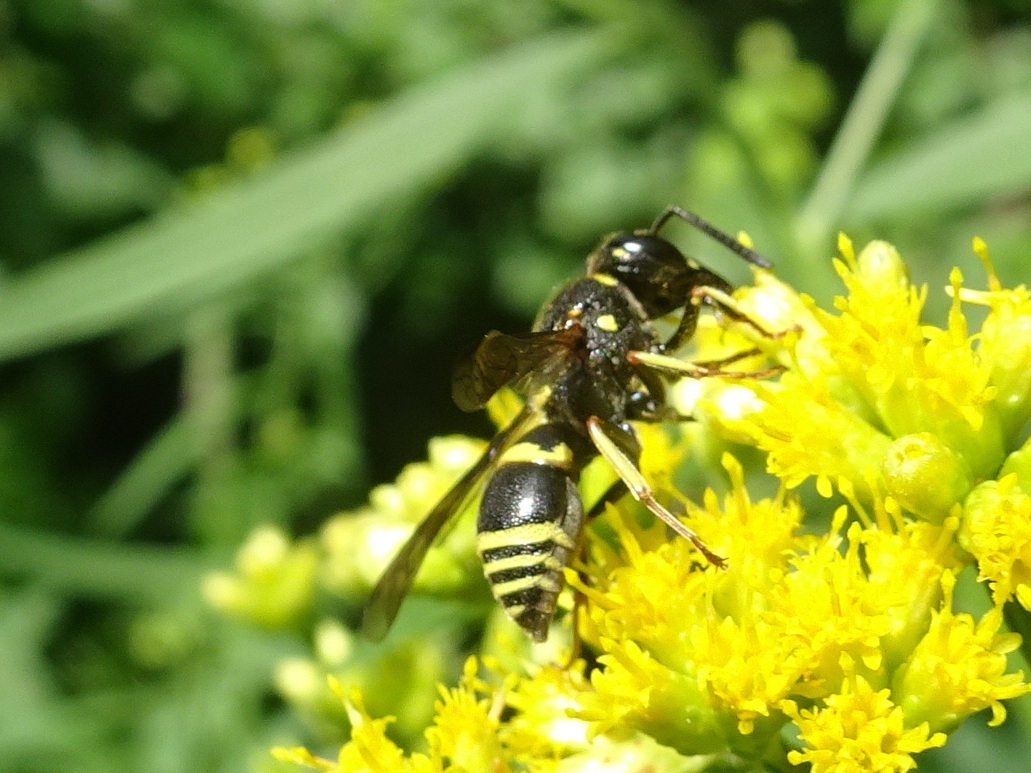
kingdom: Animalia
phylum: Arthropoda
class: Insecta
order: Hymenoptera
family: Eumenidae
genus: Euodynerus
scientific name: Euodynerus foraminatus
